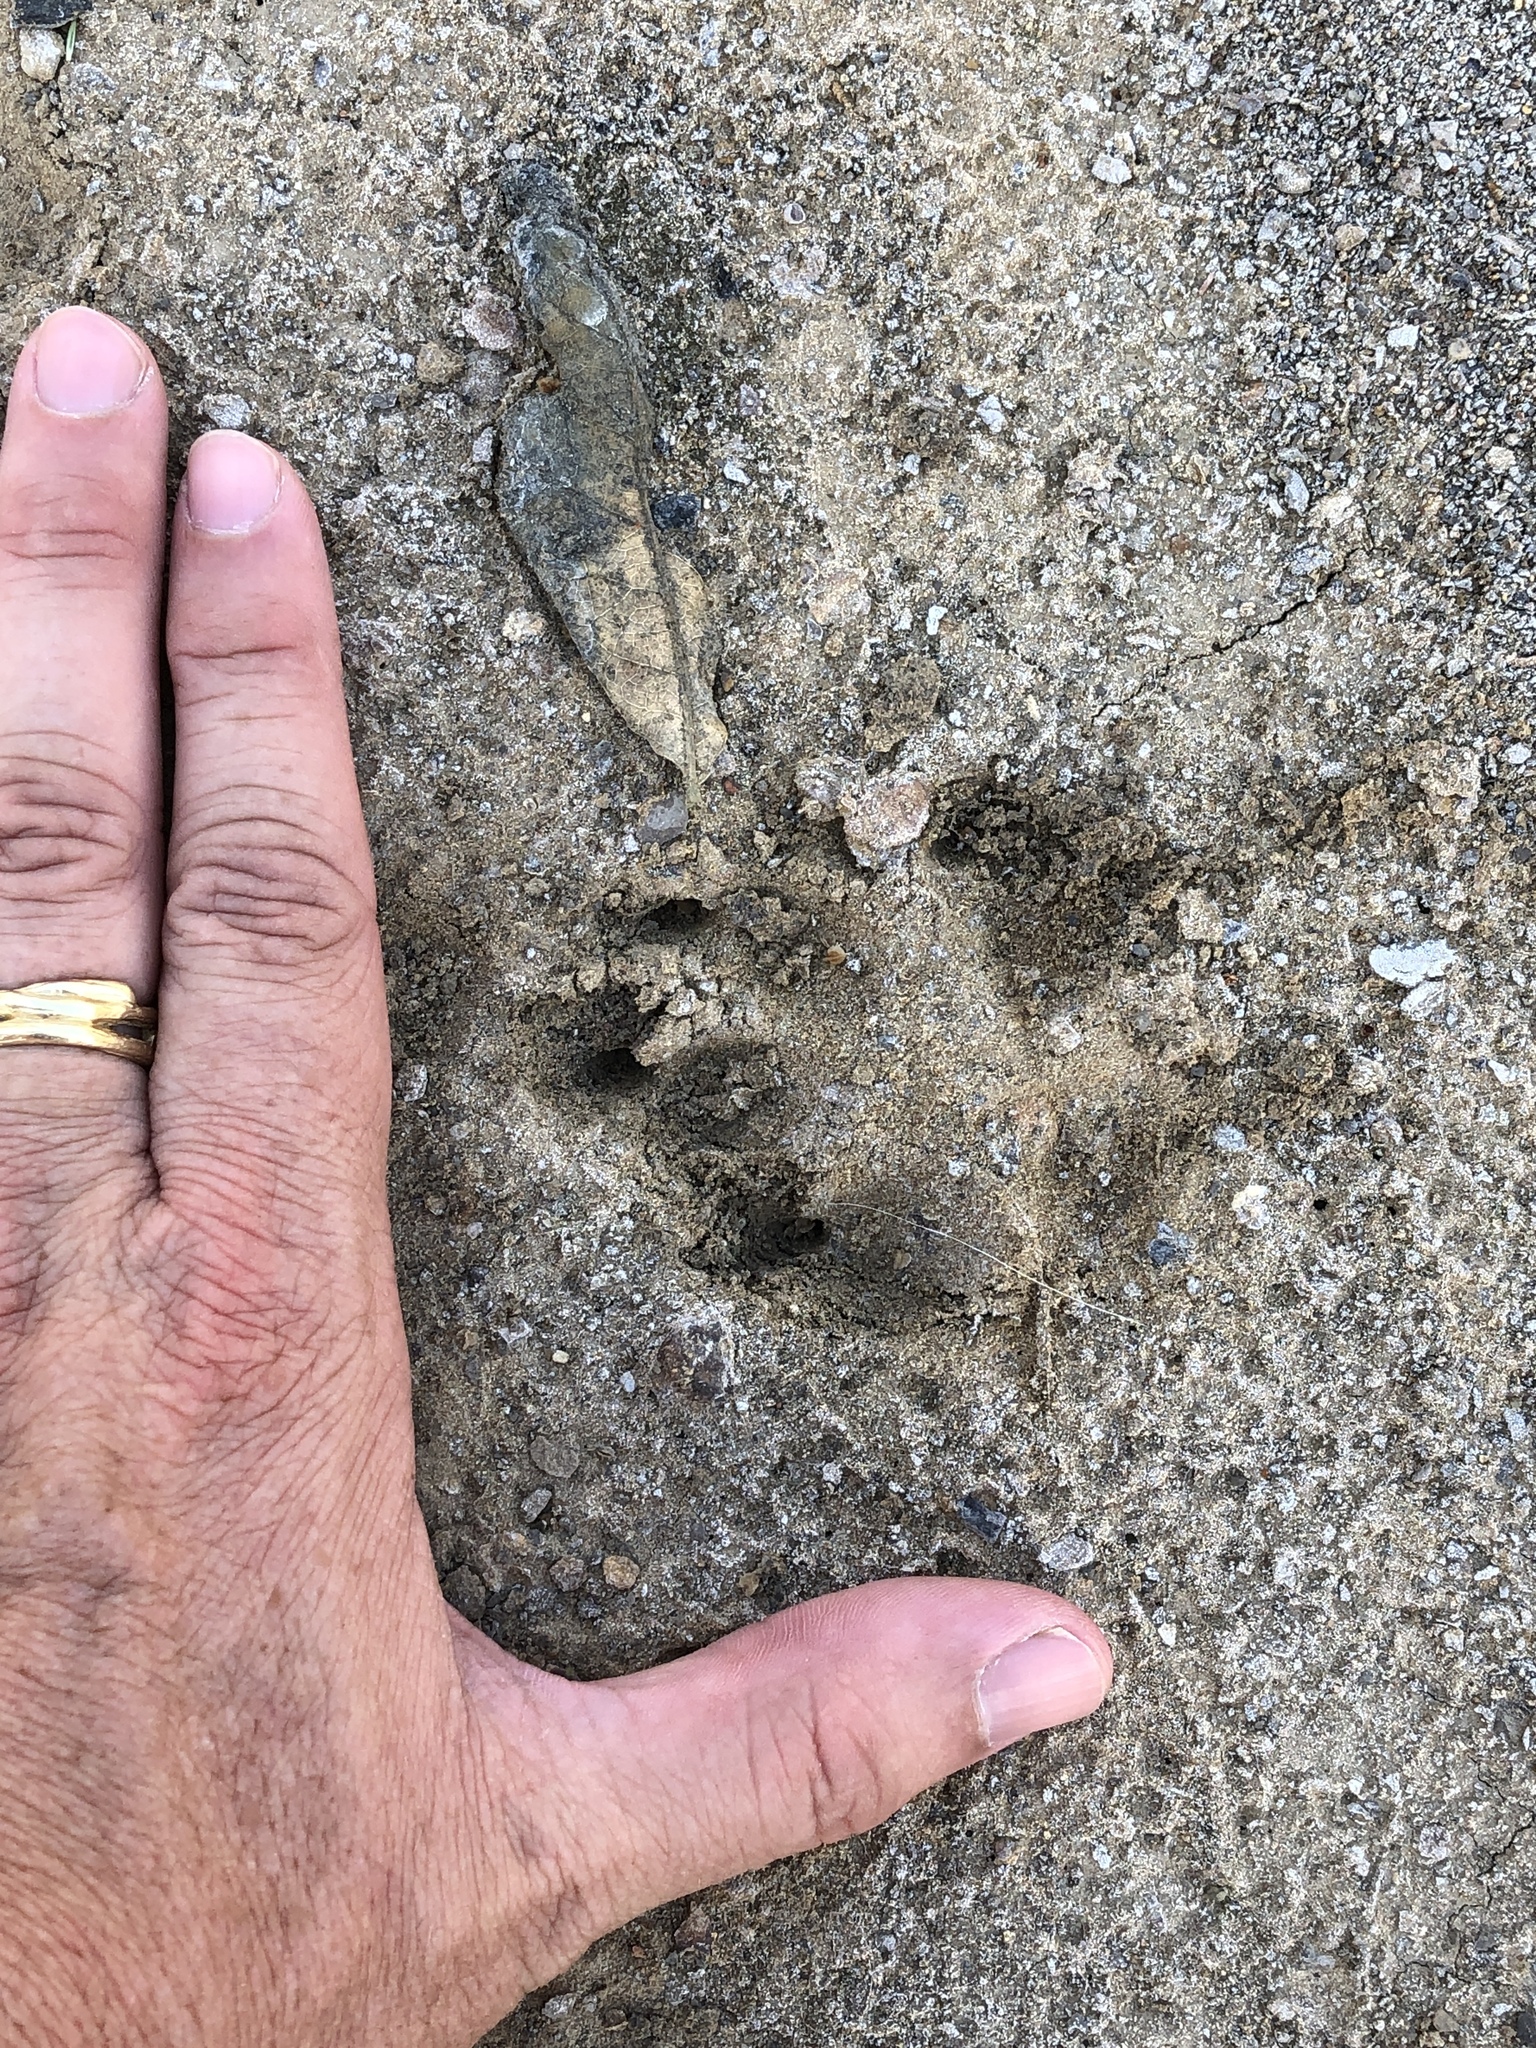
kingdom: Animalia
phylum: Chordata
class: Mammalia
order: Carnivora
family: Canidae
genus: Canis
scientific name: Canis latrans
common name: Coyote
